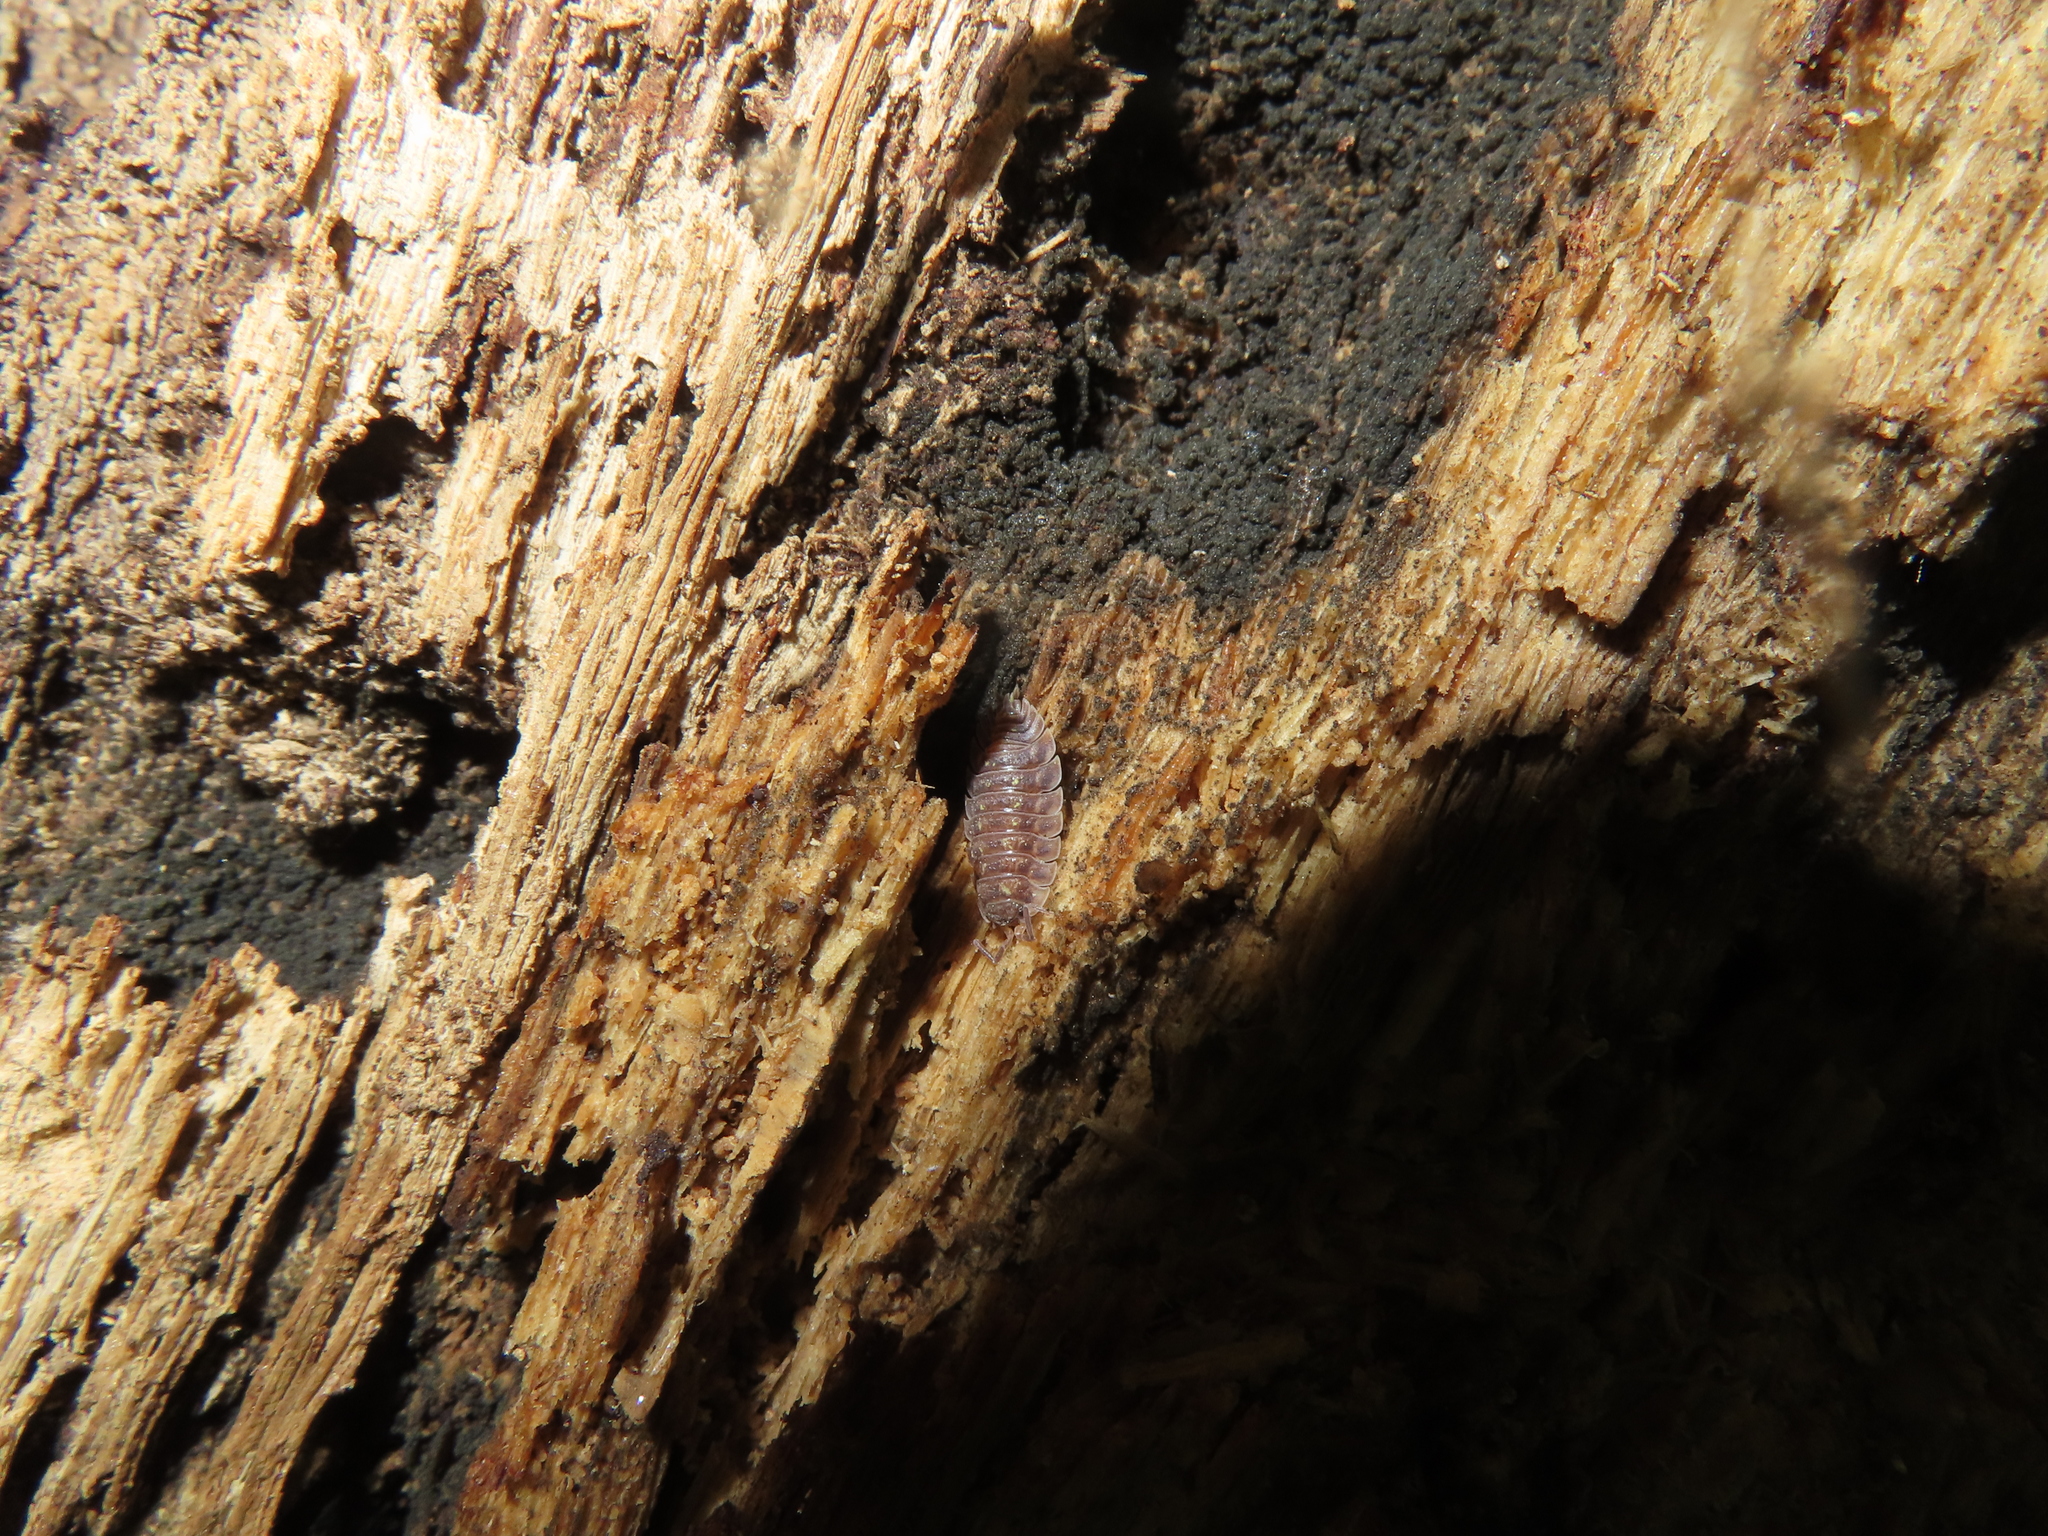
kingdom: Animalia
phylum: Arthropoda
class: Malacostraca
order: Isopoda
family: Oniscidae
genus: Oniscus
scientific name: Oniscus asellus
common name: Common shiny woodlouse
